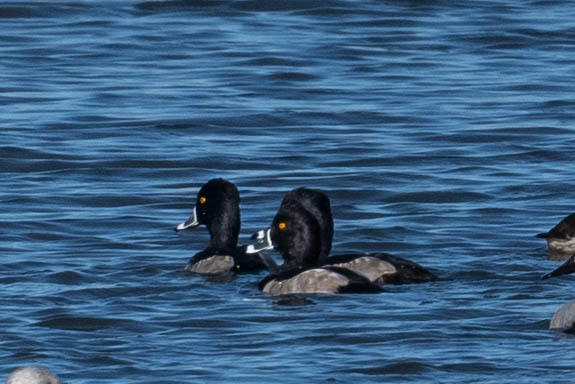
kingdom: Animalia
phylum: Chordata
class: Aves
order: Anseriformes
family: Anatidae
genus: Aythya
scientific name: Aythya collaris
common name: Ring-necked duck
